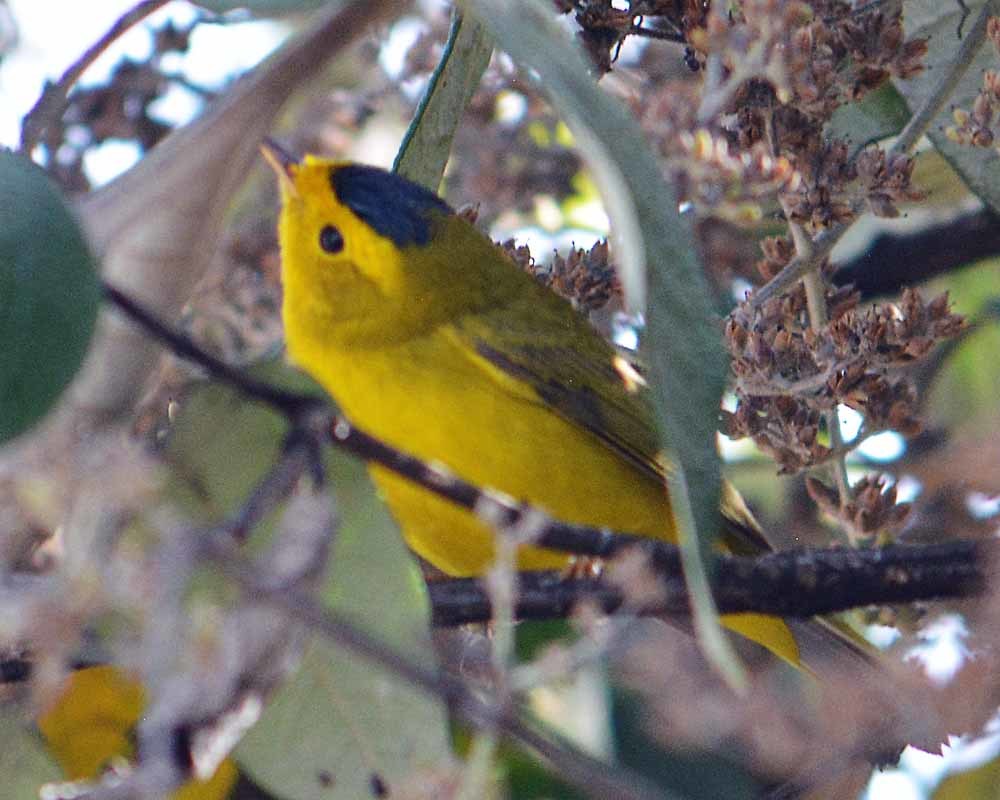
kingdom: Animalia
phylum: Chordata
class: Aves
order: Passeriformes
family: Parulidae
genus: Cardellina
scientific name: Cardellina pusilla
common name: Wilson's warbler
